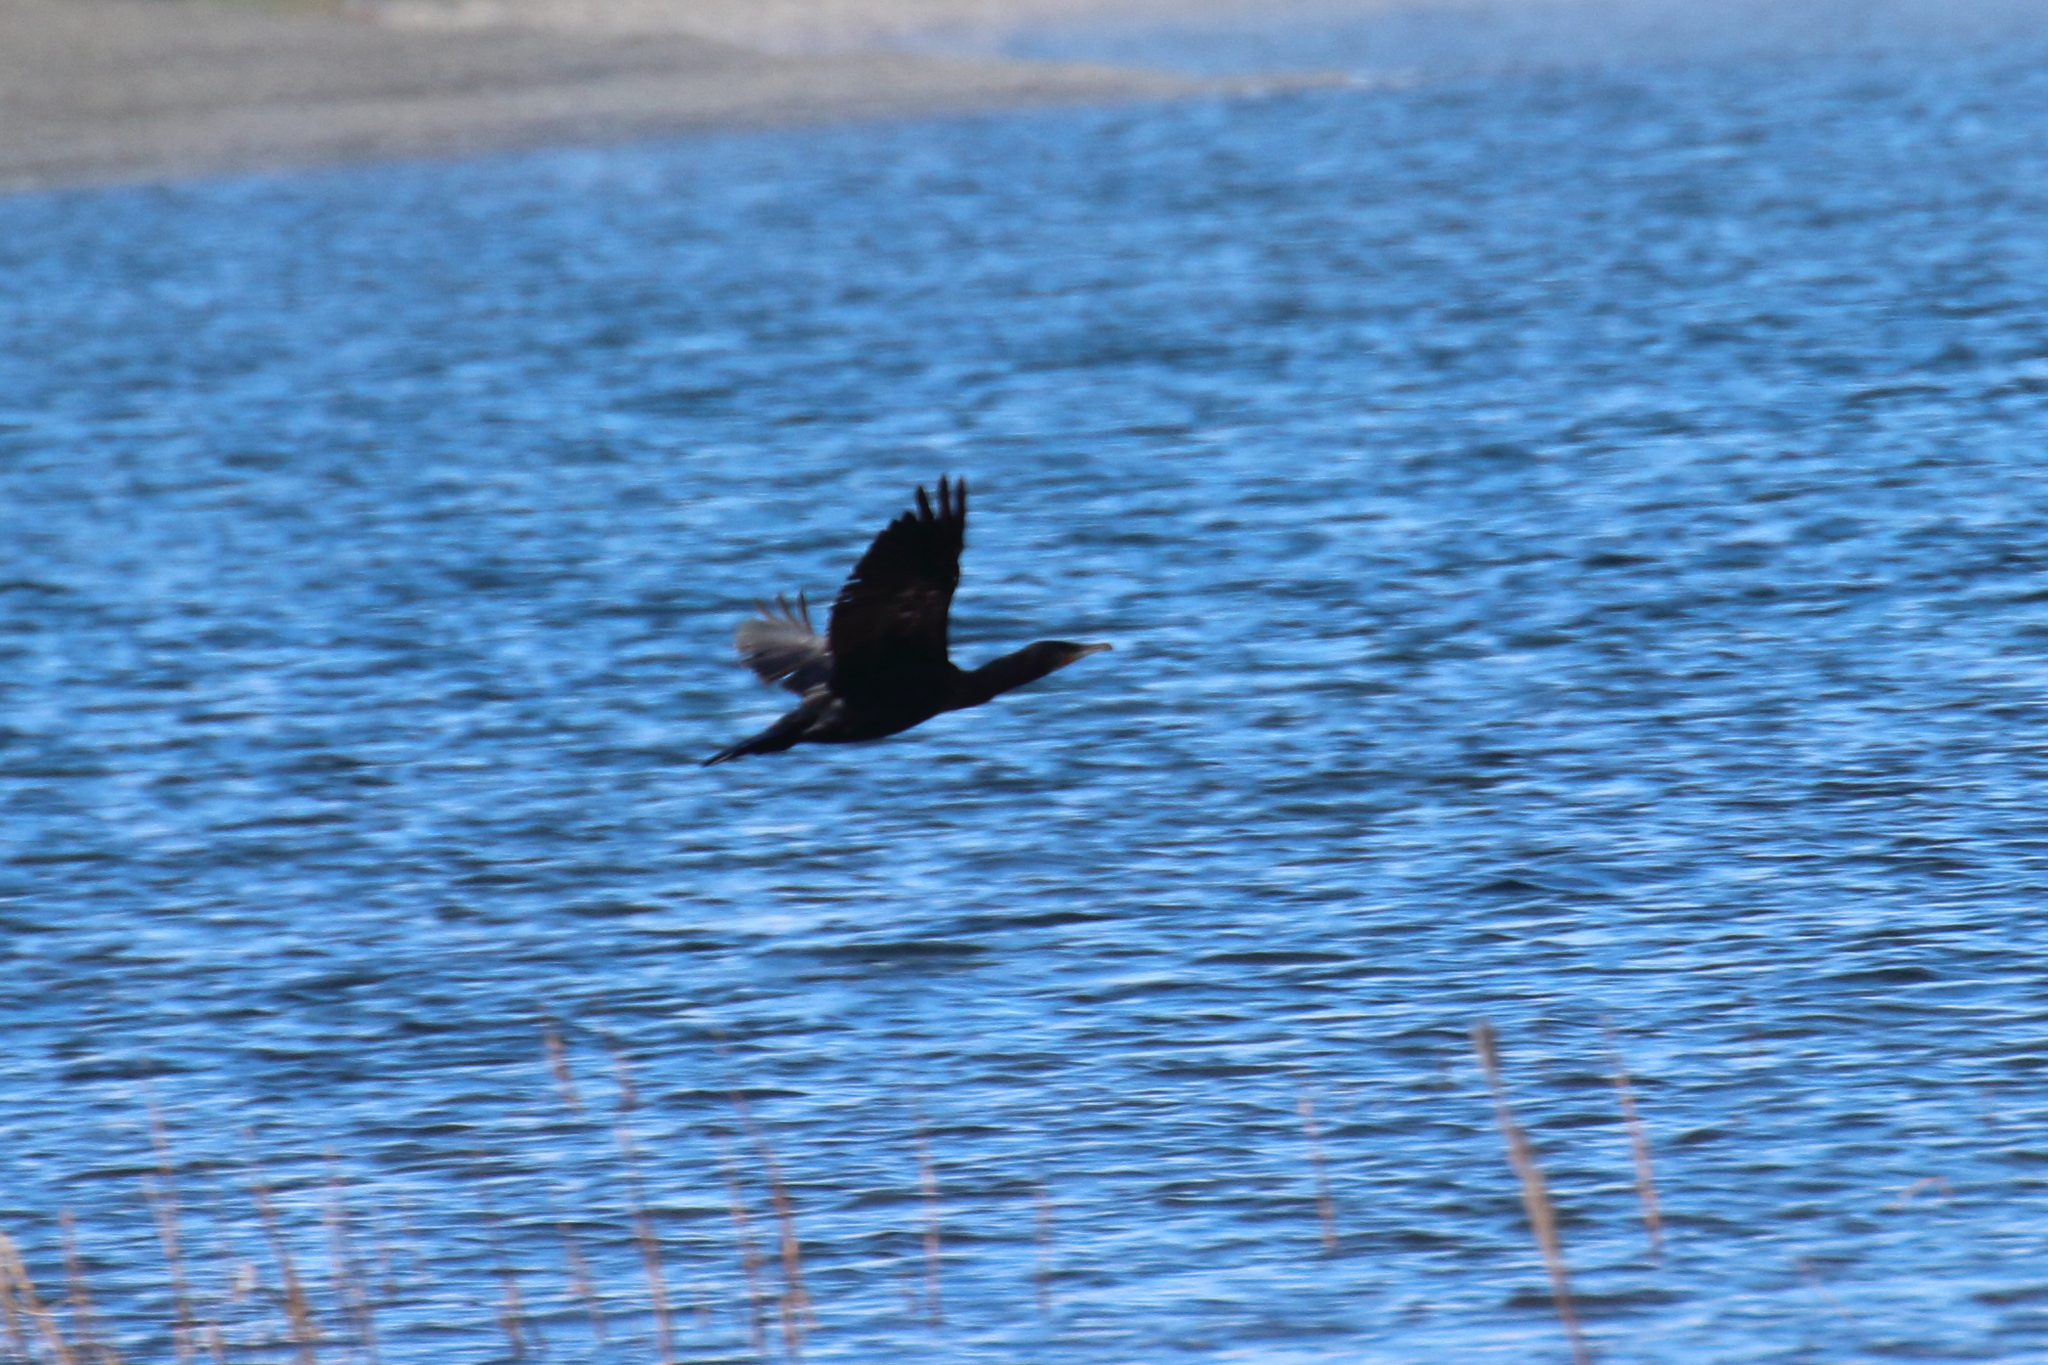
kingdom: Animalia
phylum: Chordata
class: Aves
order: Suliformes
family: Phalacrocoracidae
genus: Phalacrocorax
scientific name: Phalacrocorax carbo
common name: Great cormorant
